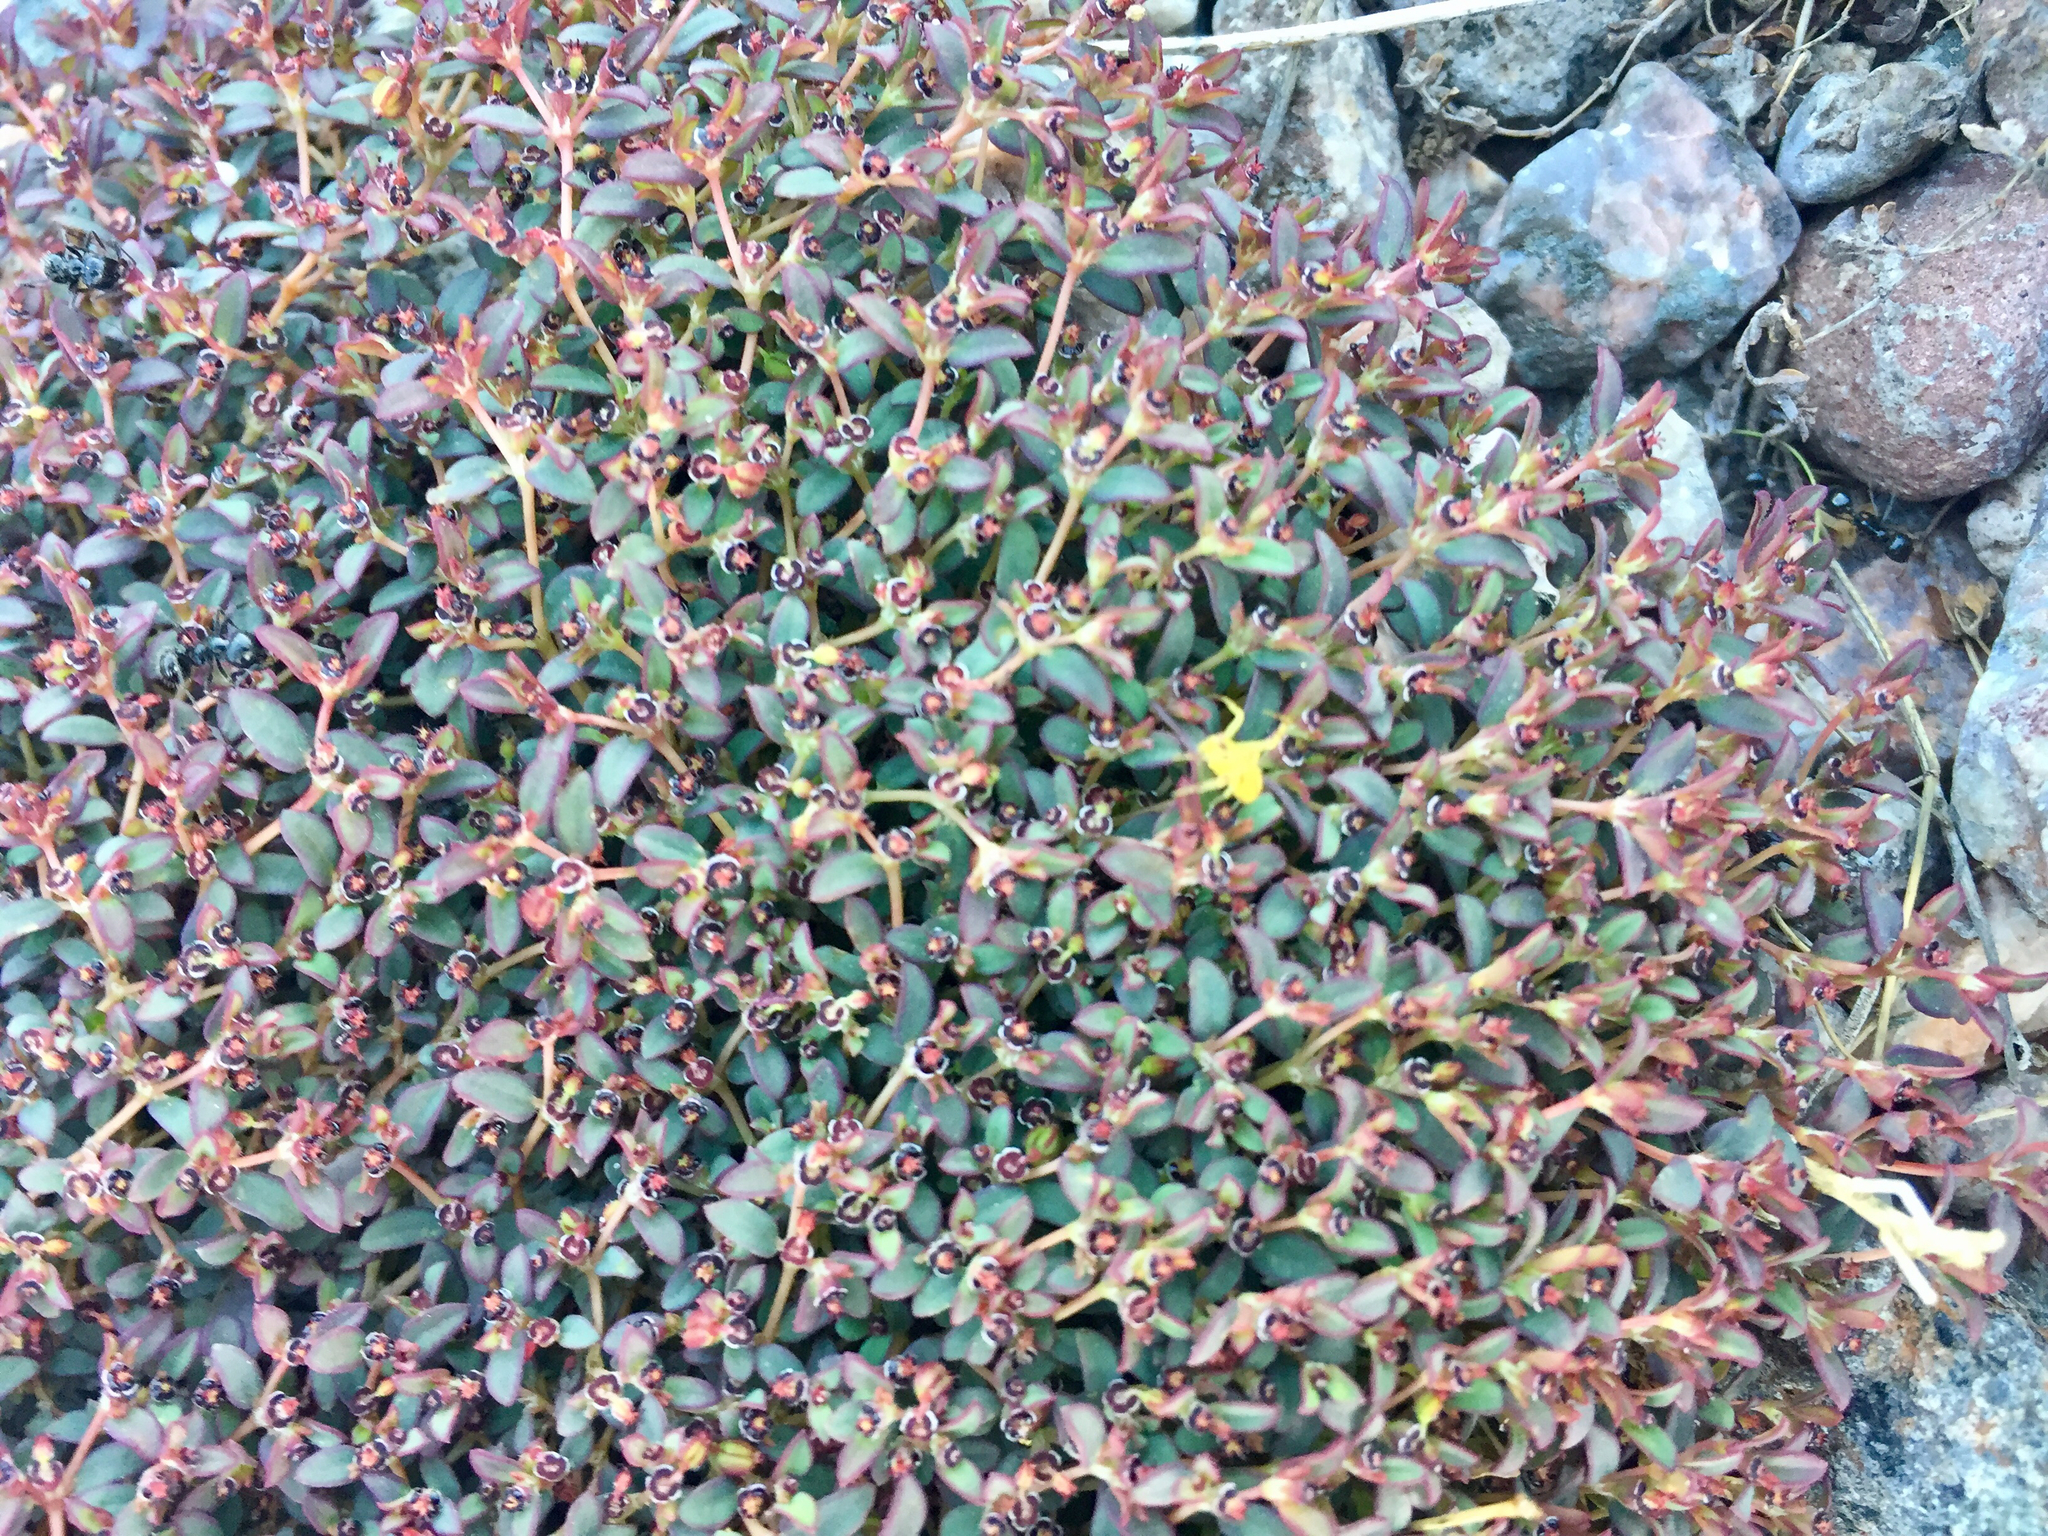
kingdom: Plantae
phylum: Tracheophyta
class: Magnoliopsida
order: Malpighiales
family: Euphorbiaceae
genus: Euphorbia
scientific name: Euphorbia polycarpa
